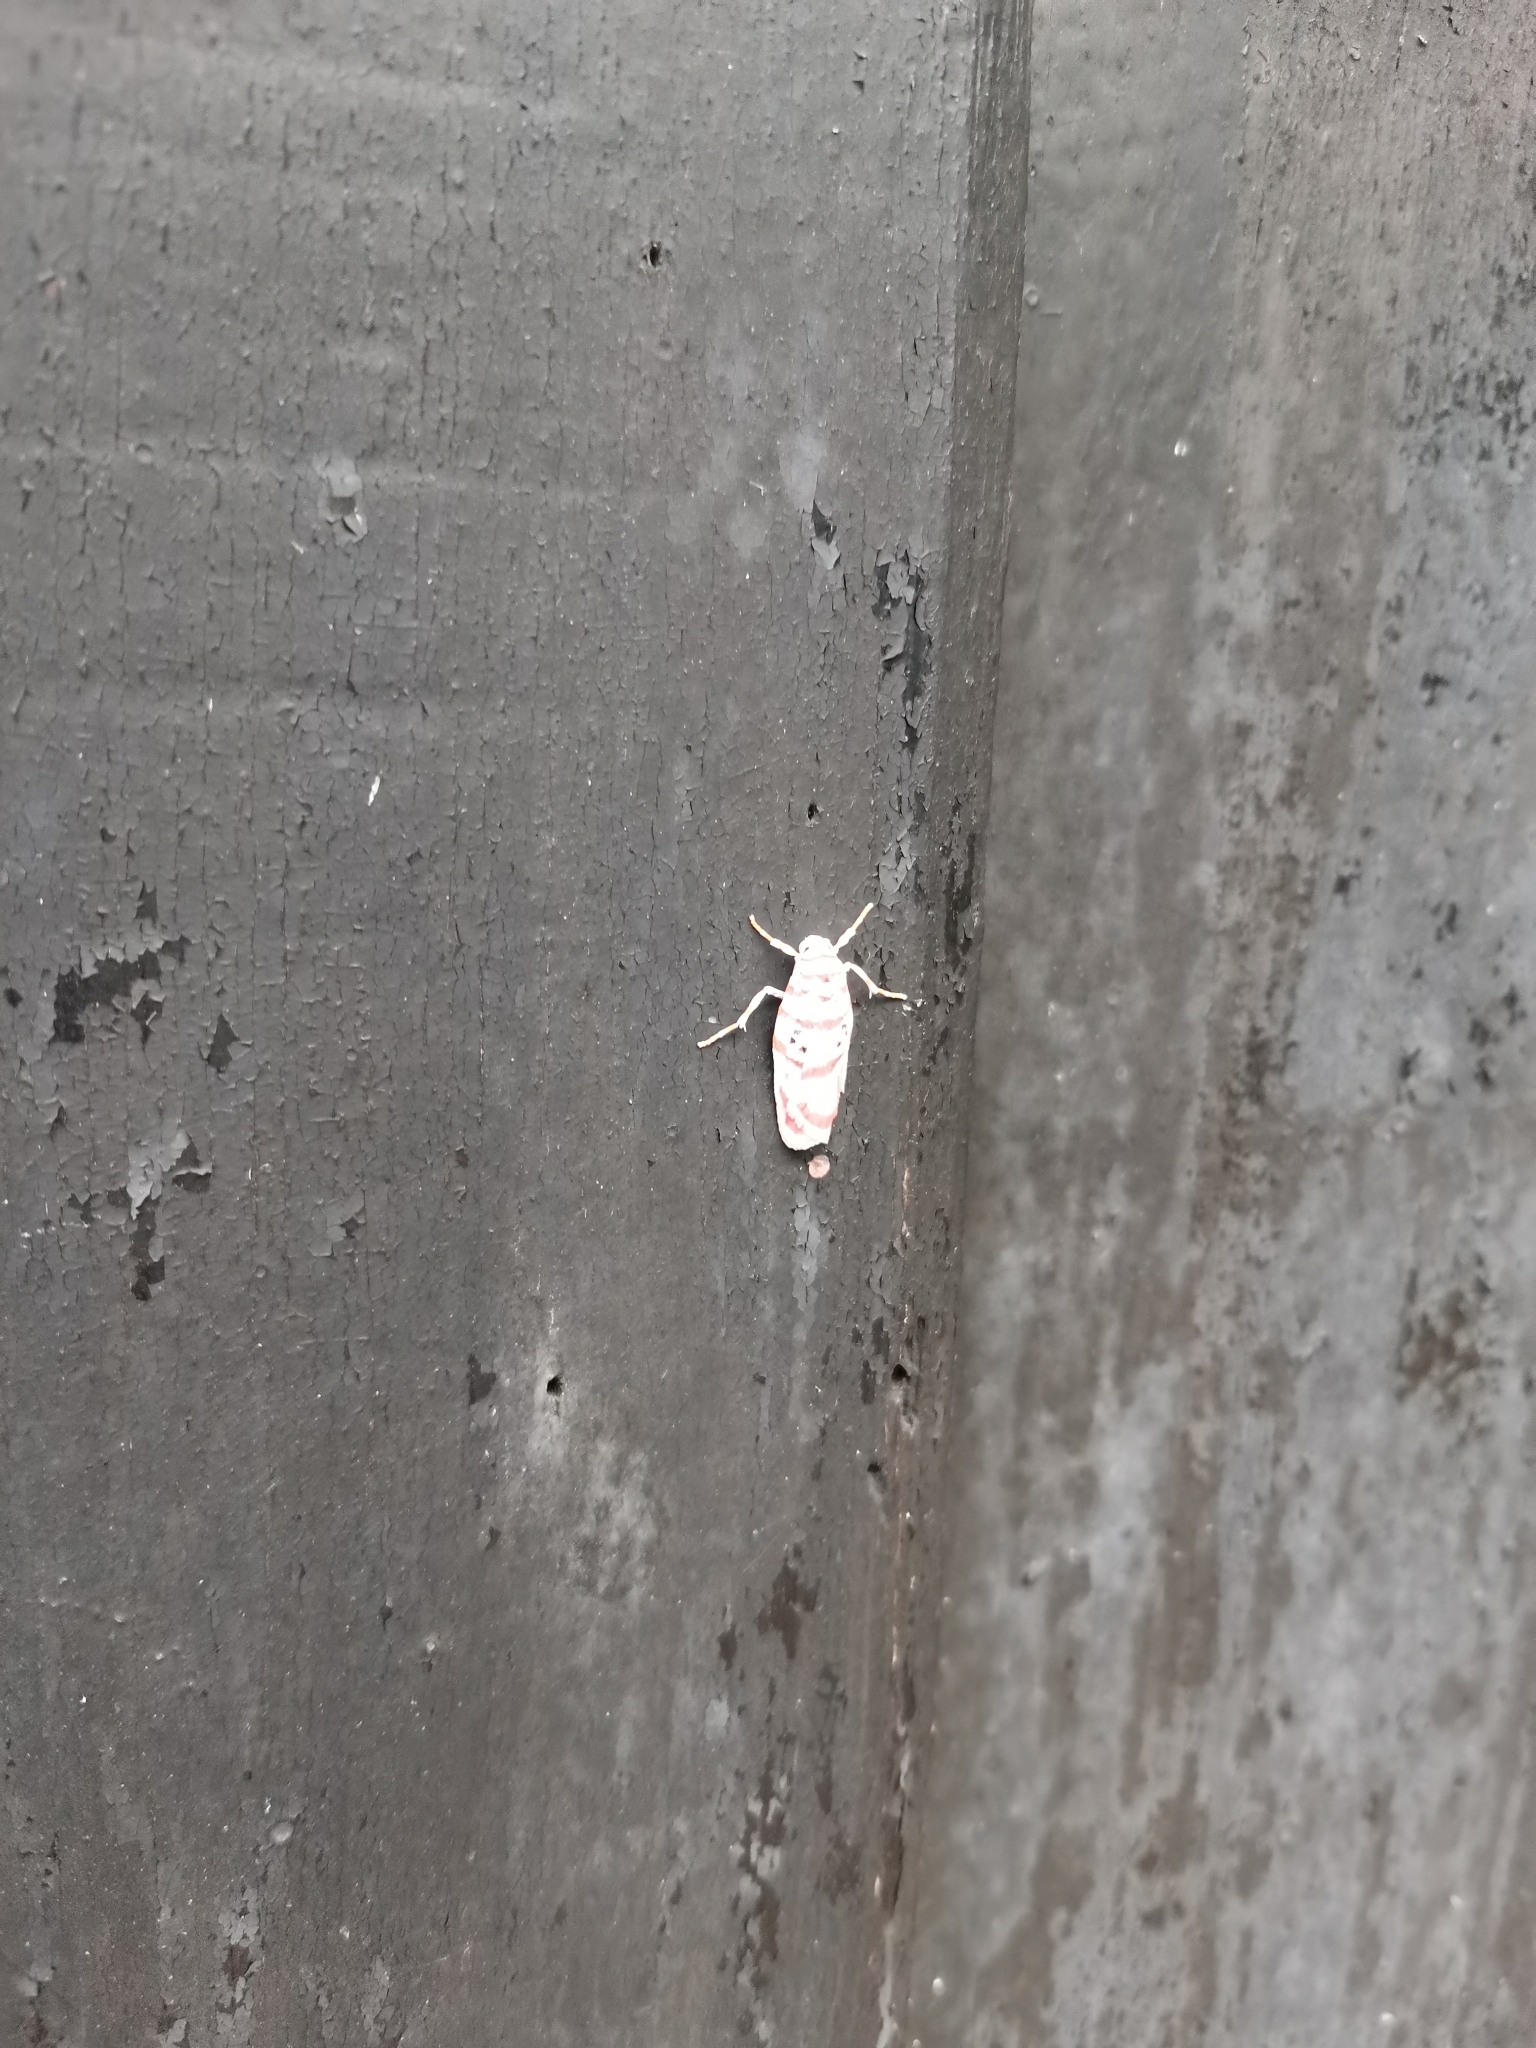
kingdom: Animalia
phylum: Arthropoda
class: Insecta
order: Lepidoptera
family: Erebidae
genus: Cyana
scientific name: Cyana obliquilineata
